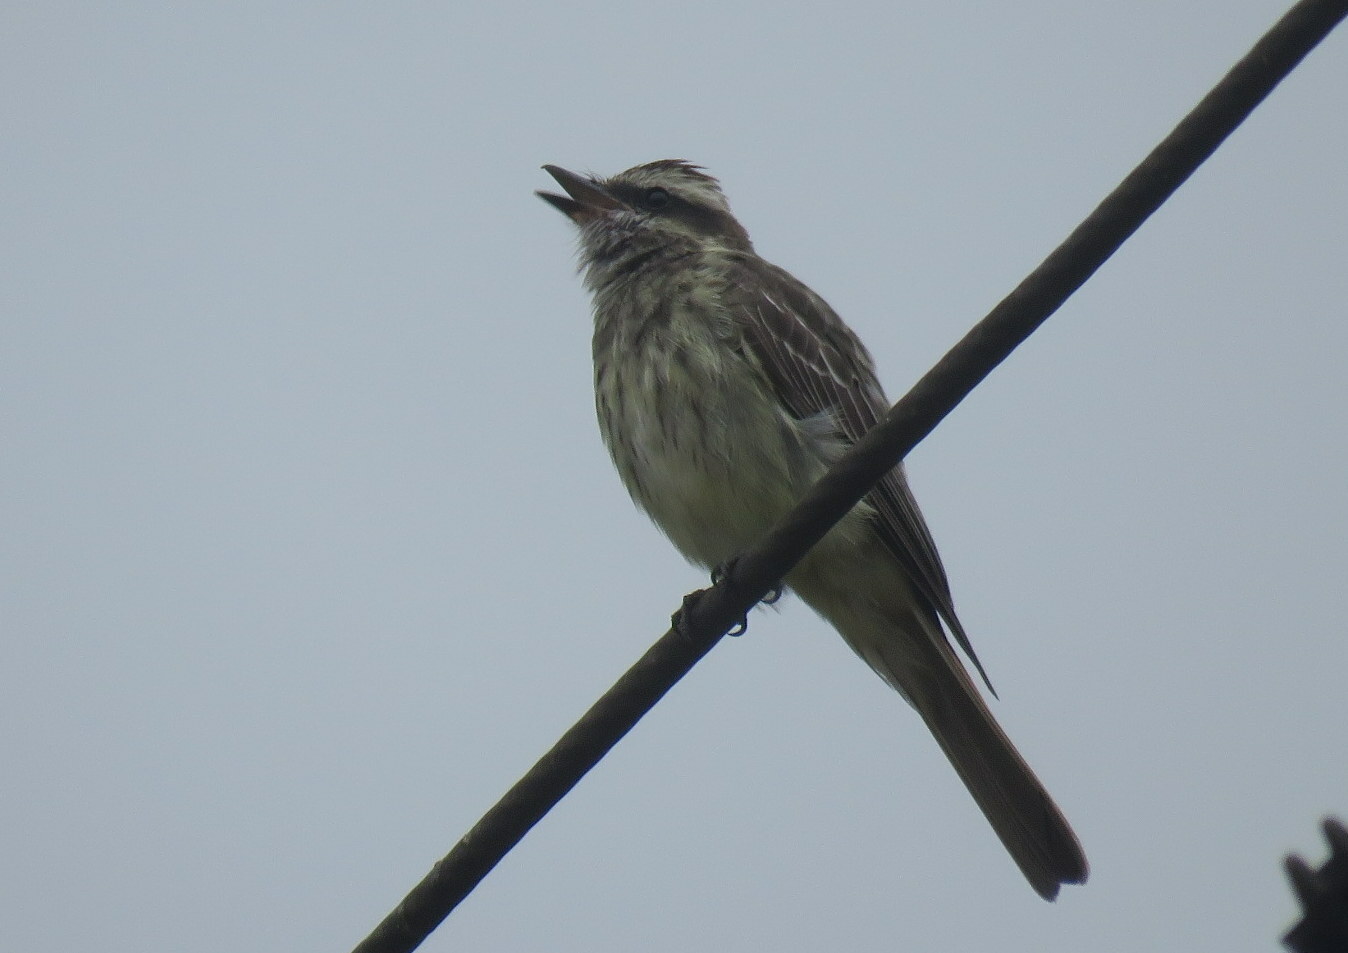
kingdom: Animalia
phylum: Chordata
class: Aves
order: Passeriformes
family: Tyrannidae
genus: Empidonomus
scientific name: Empidonomus varius
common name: Variegated flycatcher
